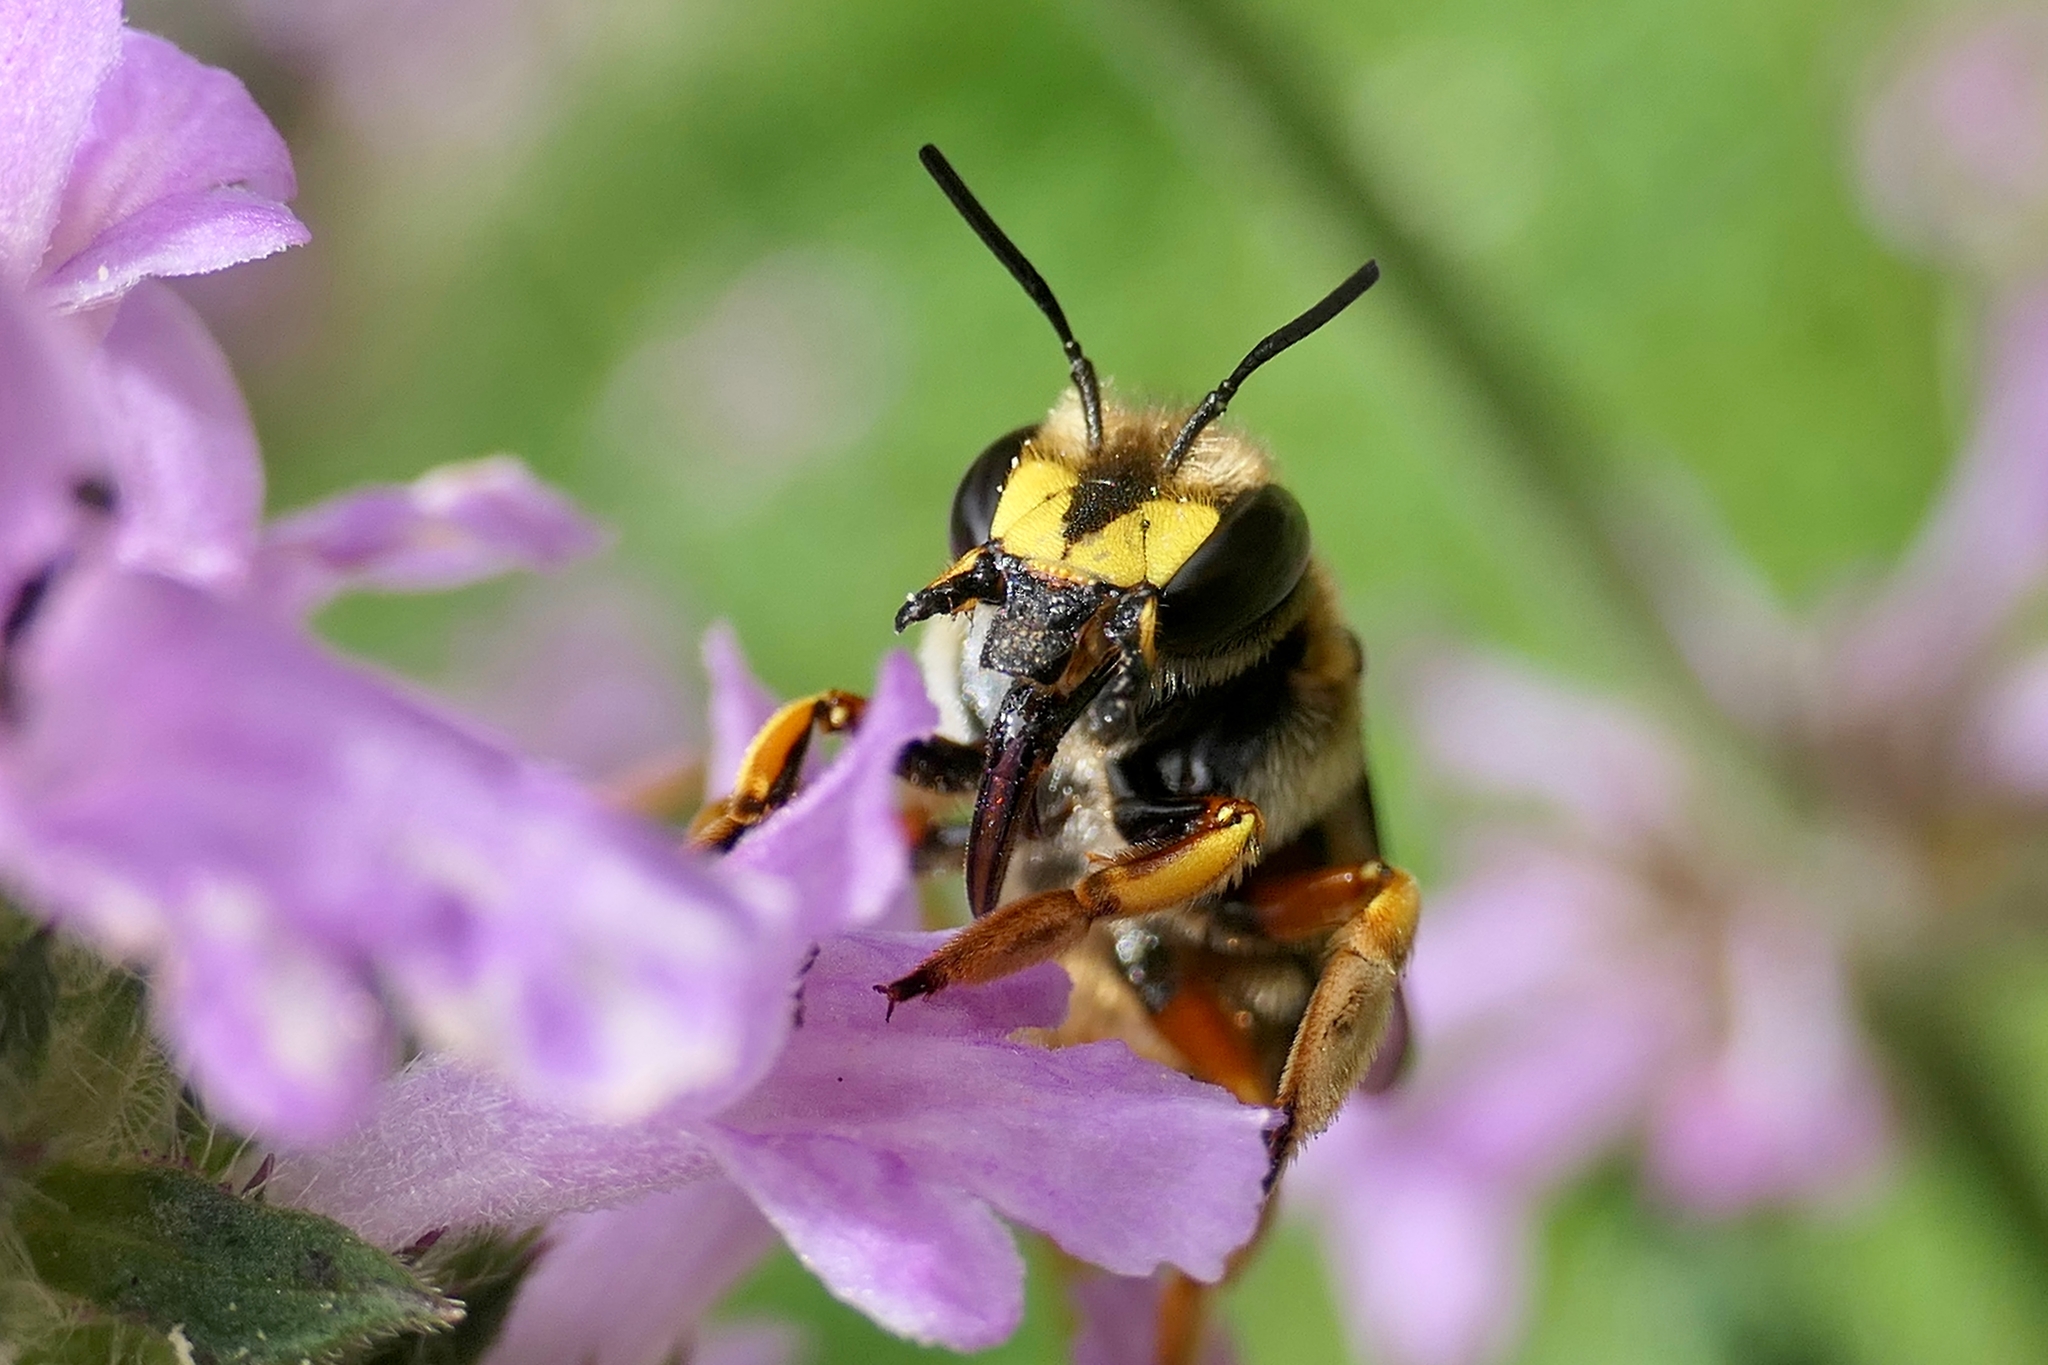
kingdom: Animalia
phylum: Arthropoda
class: Insecta
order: Hymenoptera
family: Megachilidae
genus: Anthidium
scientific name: Anthidium manicatum
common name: Wool carder bee
